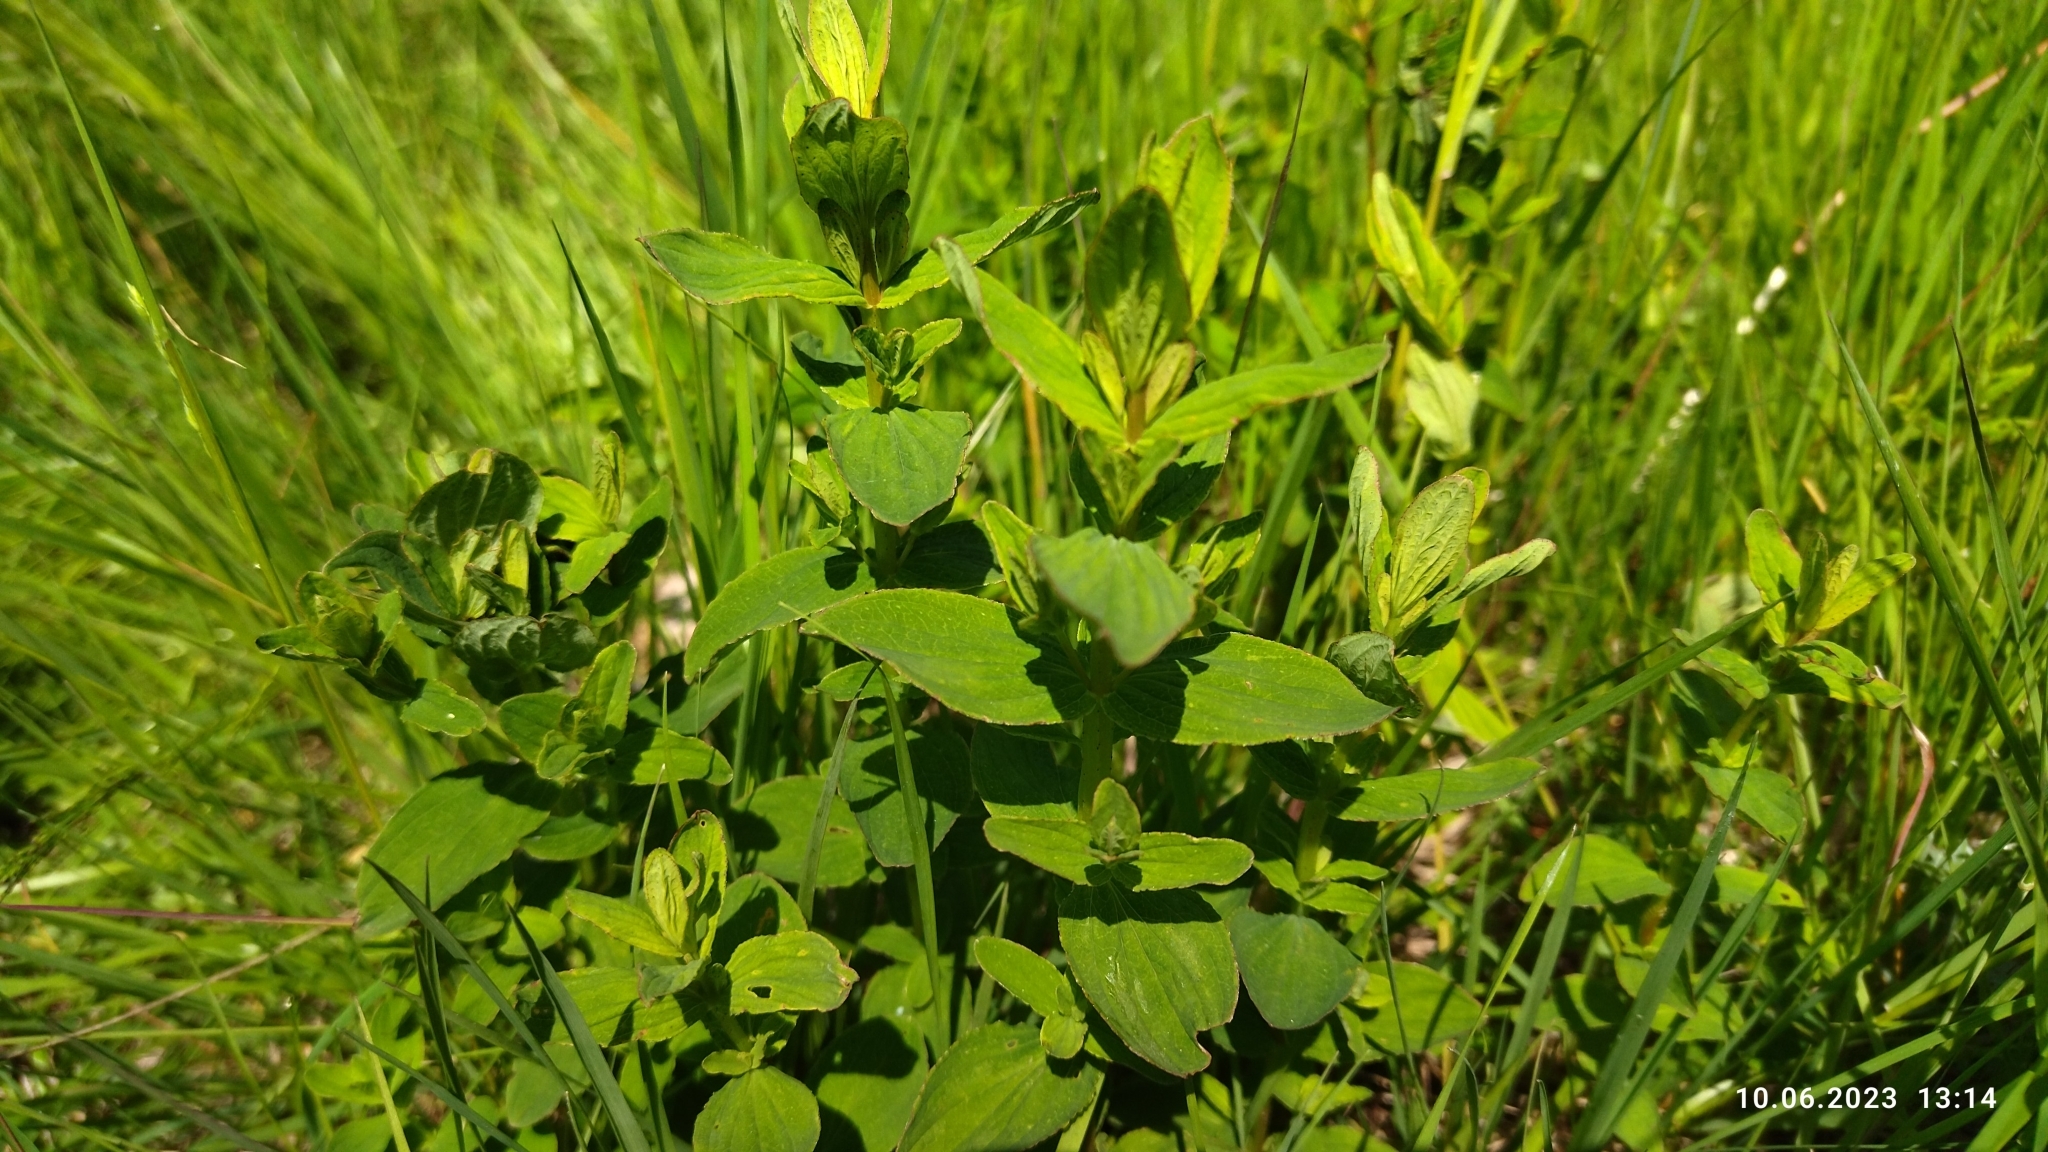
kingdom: Plantae
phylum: Tracheophyta
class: Magnoliopsida
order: Malpighiales
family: Hypericaceae
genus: Hypericum
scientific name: Hypericum maculatum
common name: Imperforate st. john's-wort
